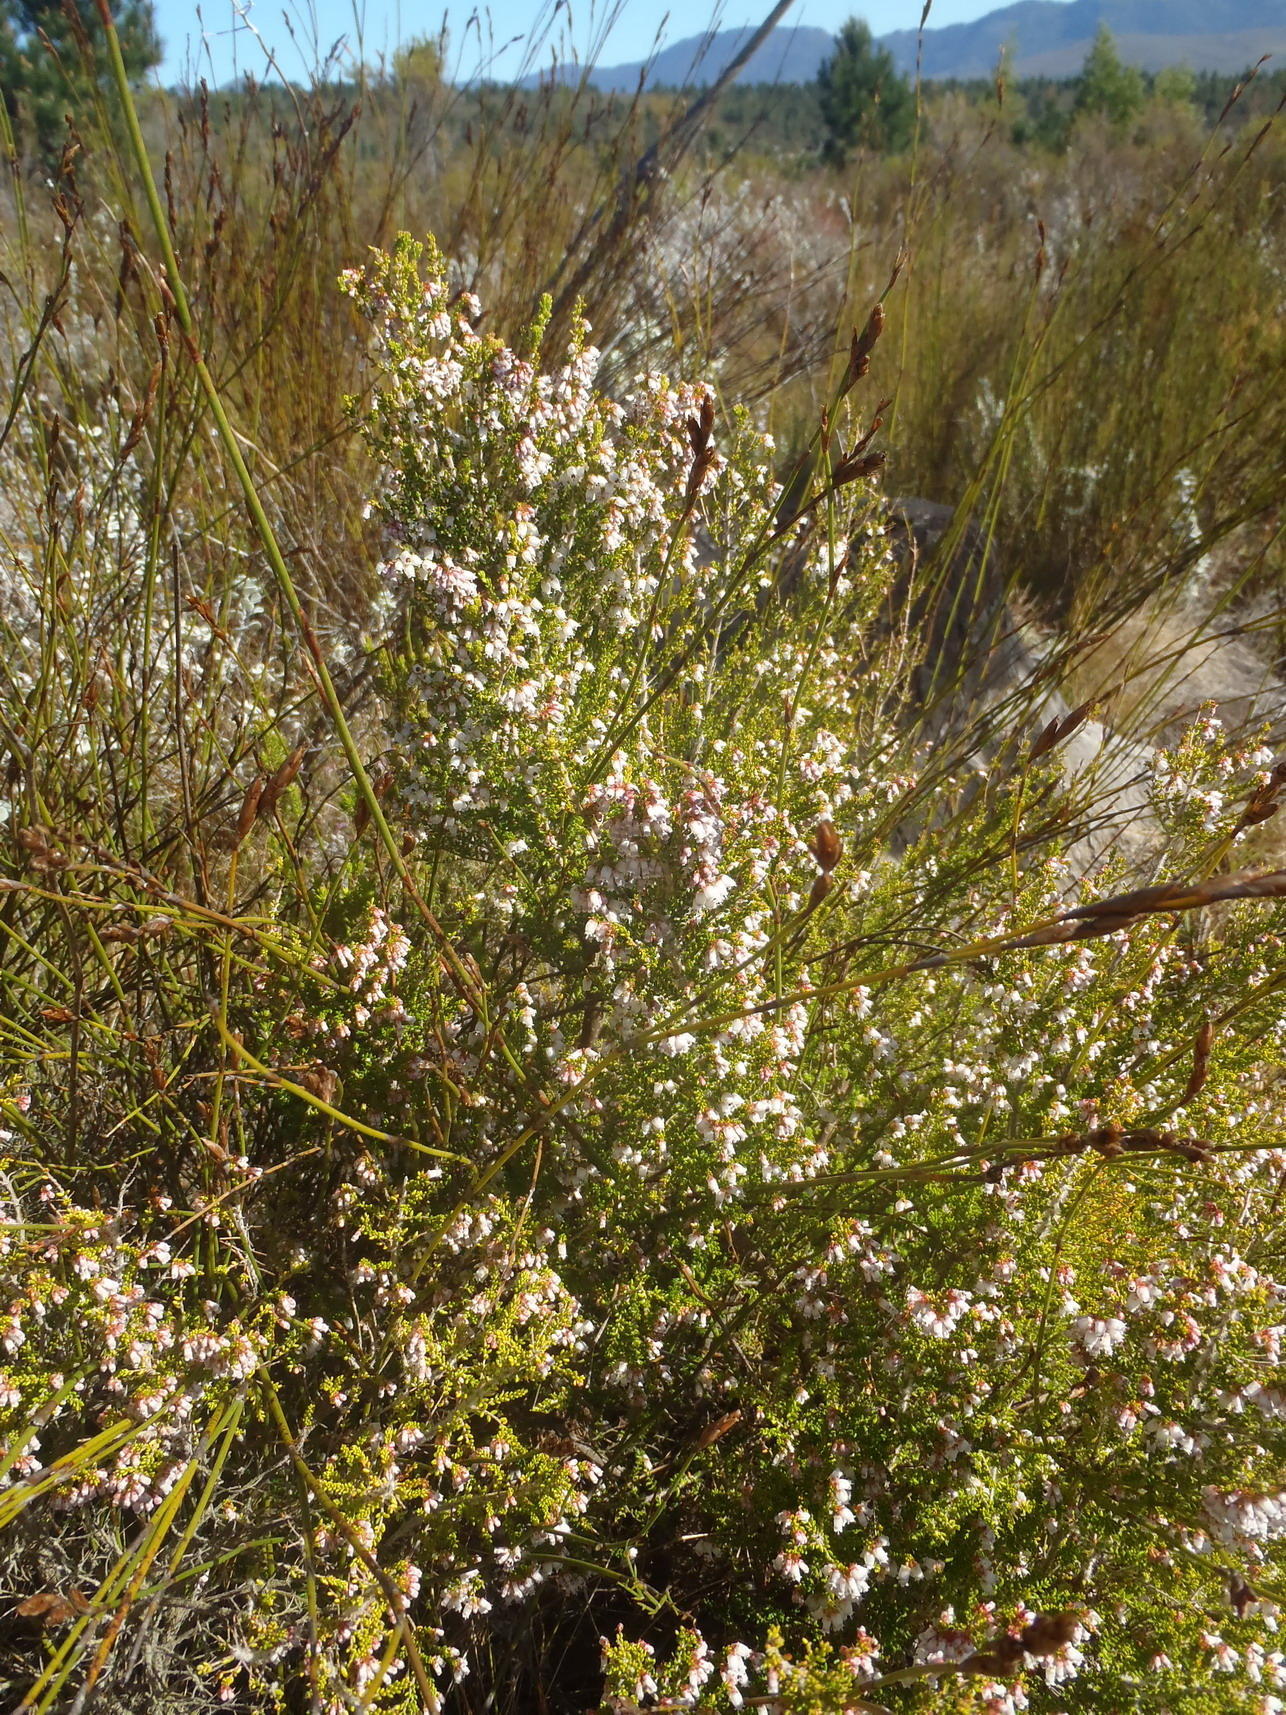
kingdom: Plantae
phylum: Tracheophyta
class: Magnoliopsida
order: Ericales
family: Ericaceae
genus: Erica
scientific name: Erica scabriuscula
